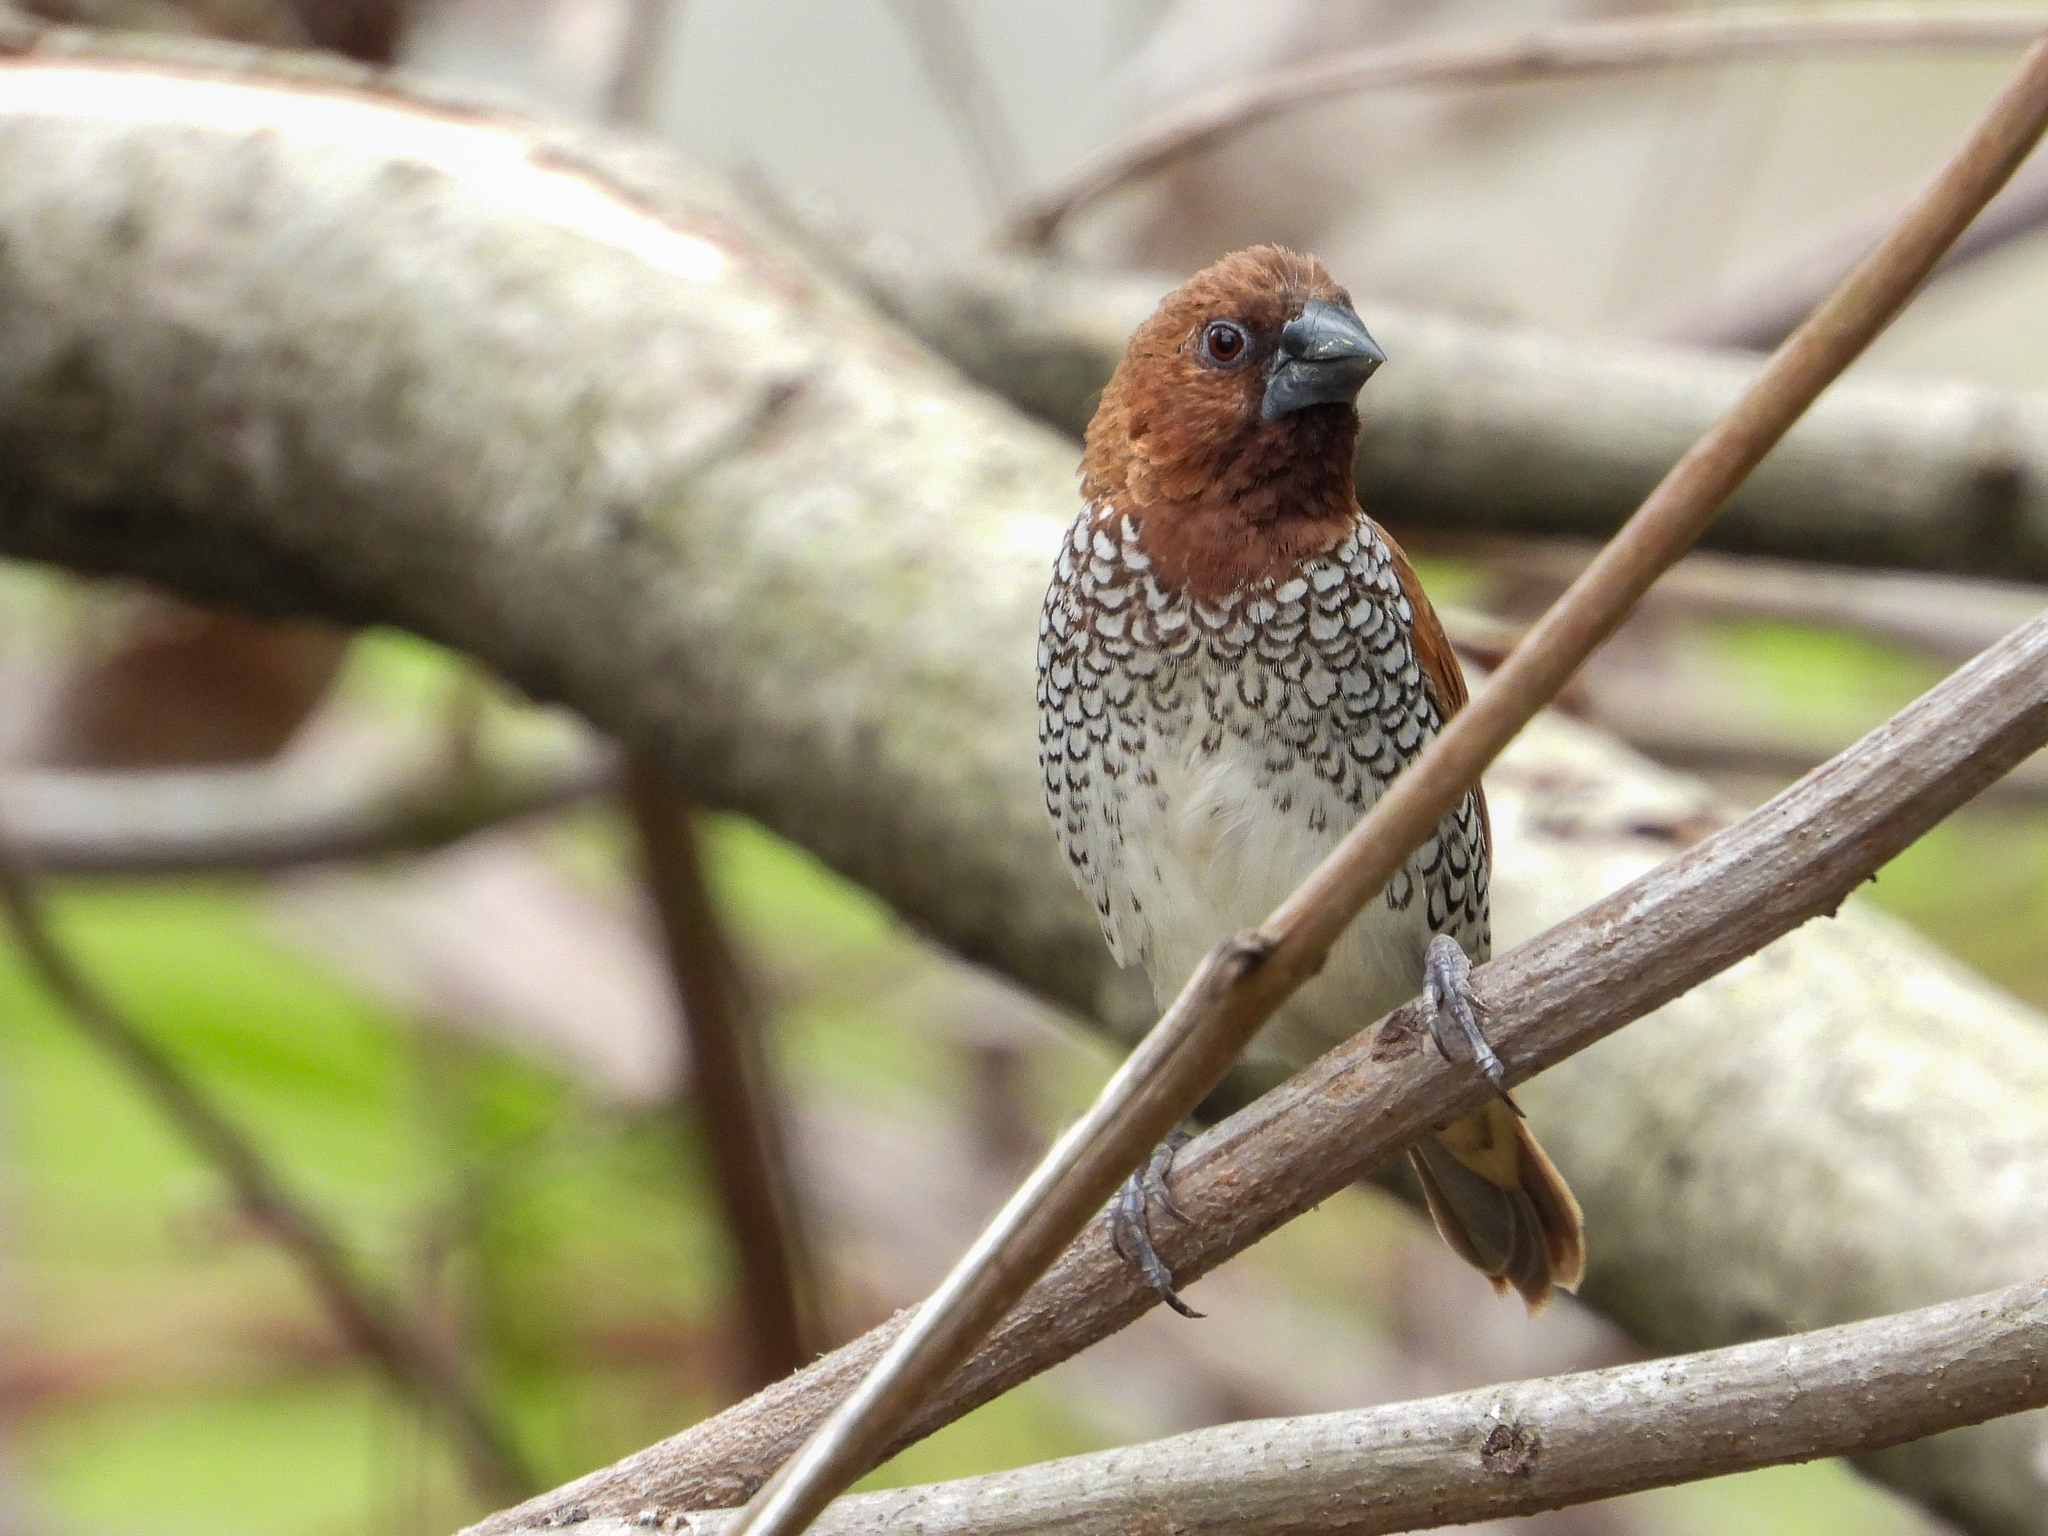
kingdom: Animalia
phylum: Chordata
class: Aves
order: Passeriformes
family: Estrildidae
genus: Lonchura
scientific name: Lonchura punctulata
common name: Scaly-breasted munia
